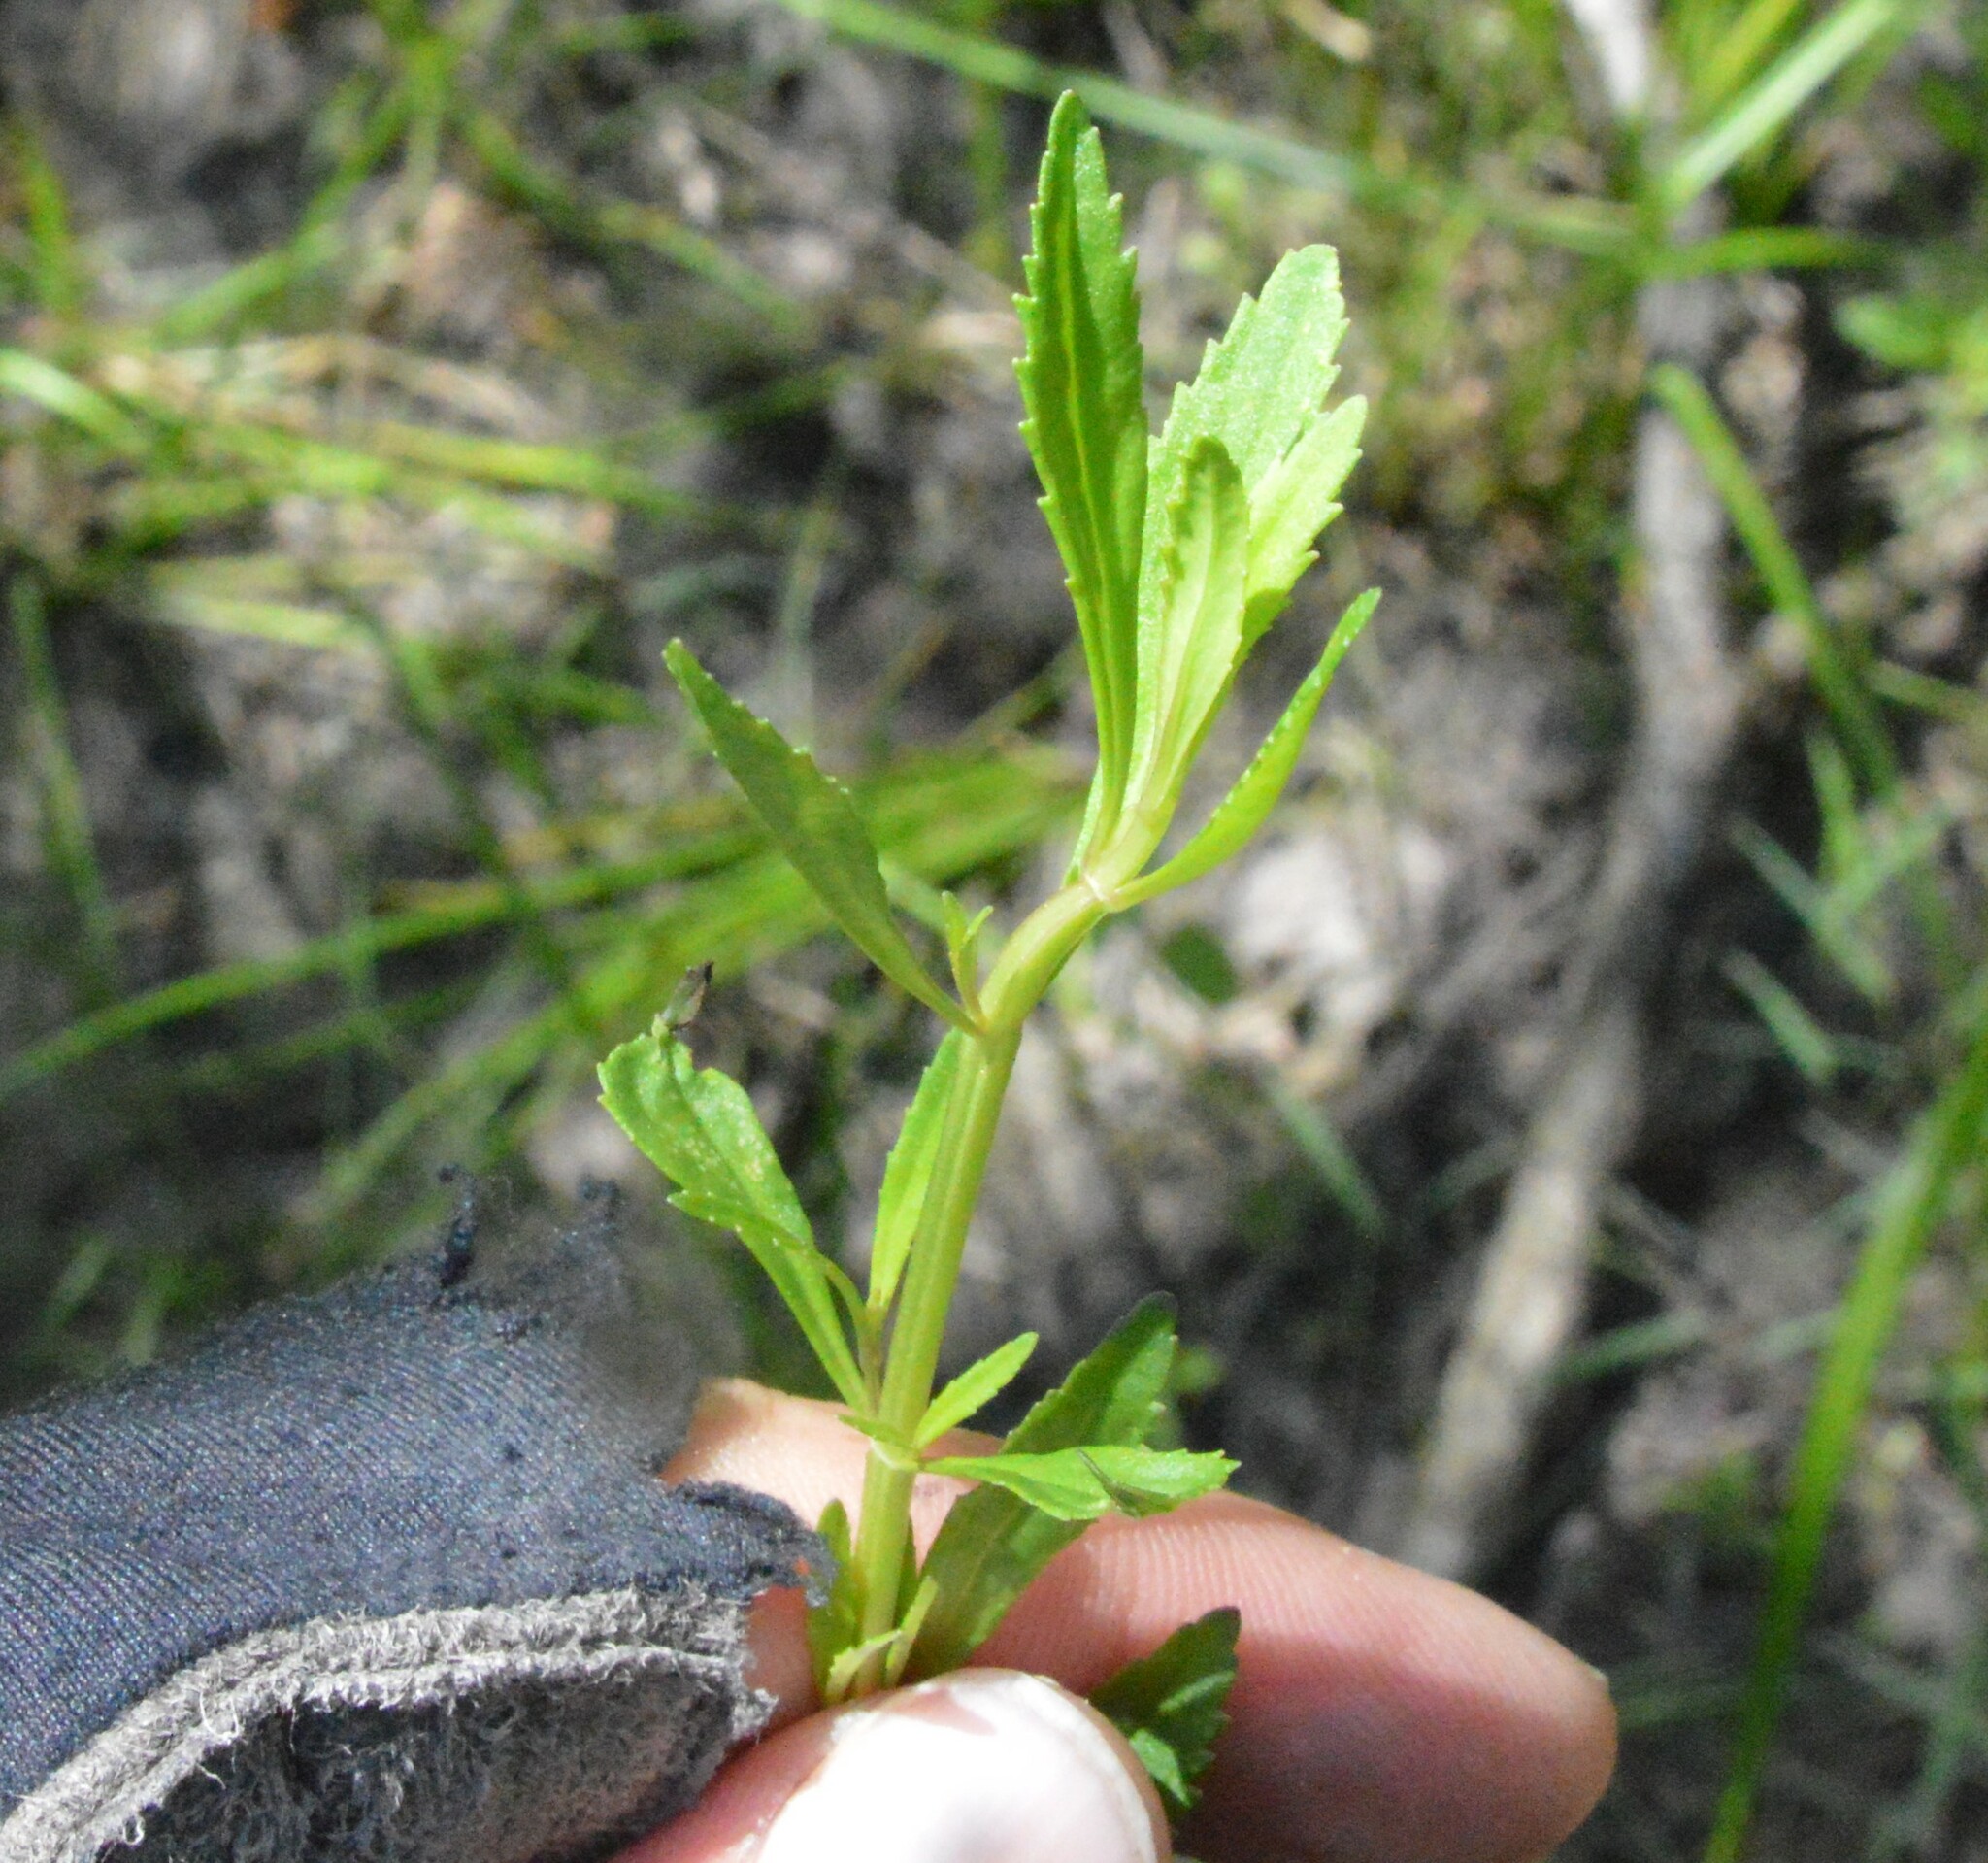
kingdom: Plantae
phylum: Tracheophyta
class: Magnoliopsida
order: Lamiales
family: Plantaginaceae
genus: Mecardonia
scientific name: Mecardonia acuminata
